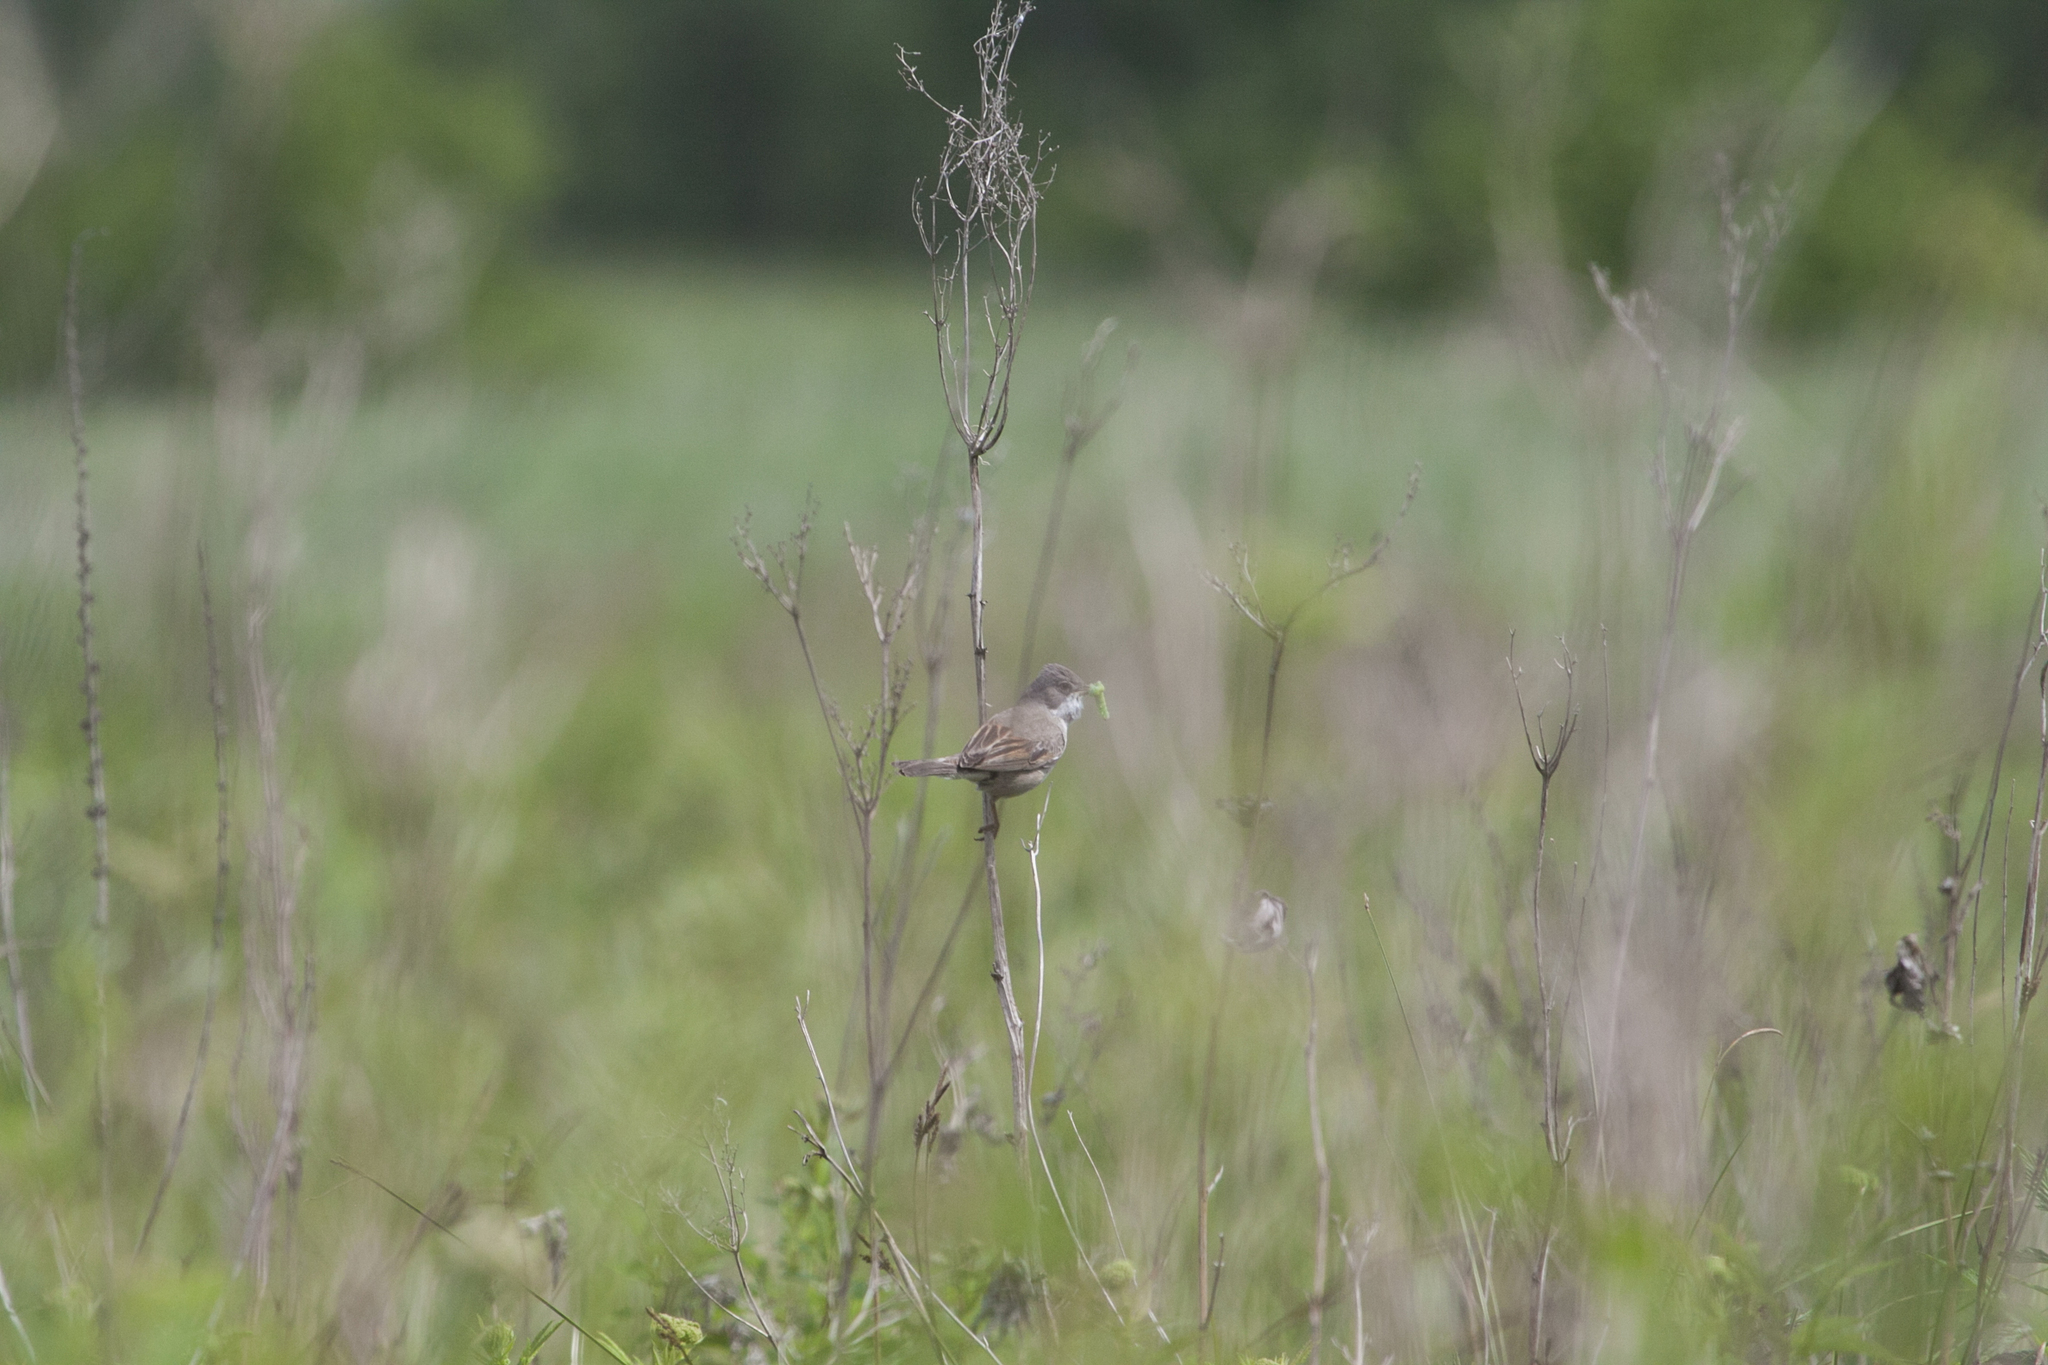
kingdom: Animalia
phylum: Chordata
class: Aves
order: Passeriformes
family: Sylviidae
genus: Sylvia
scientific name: Sylvia communis
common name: Common whitethroat
